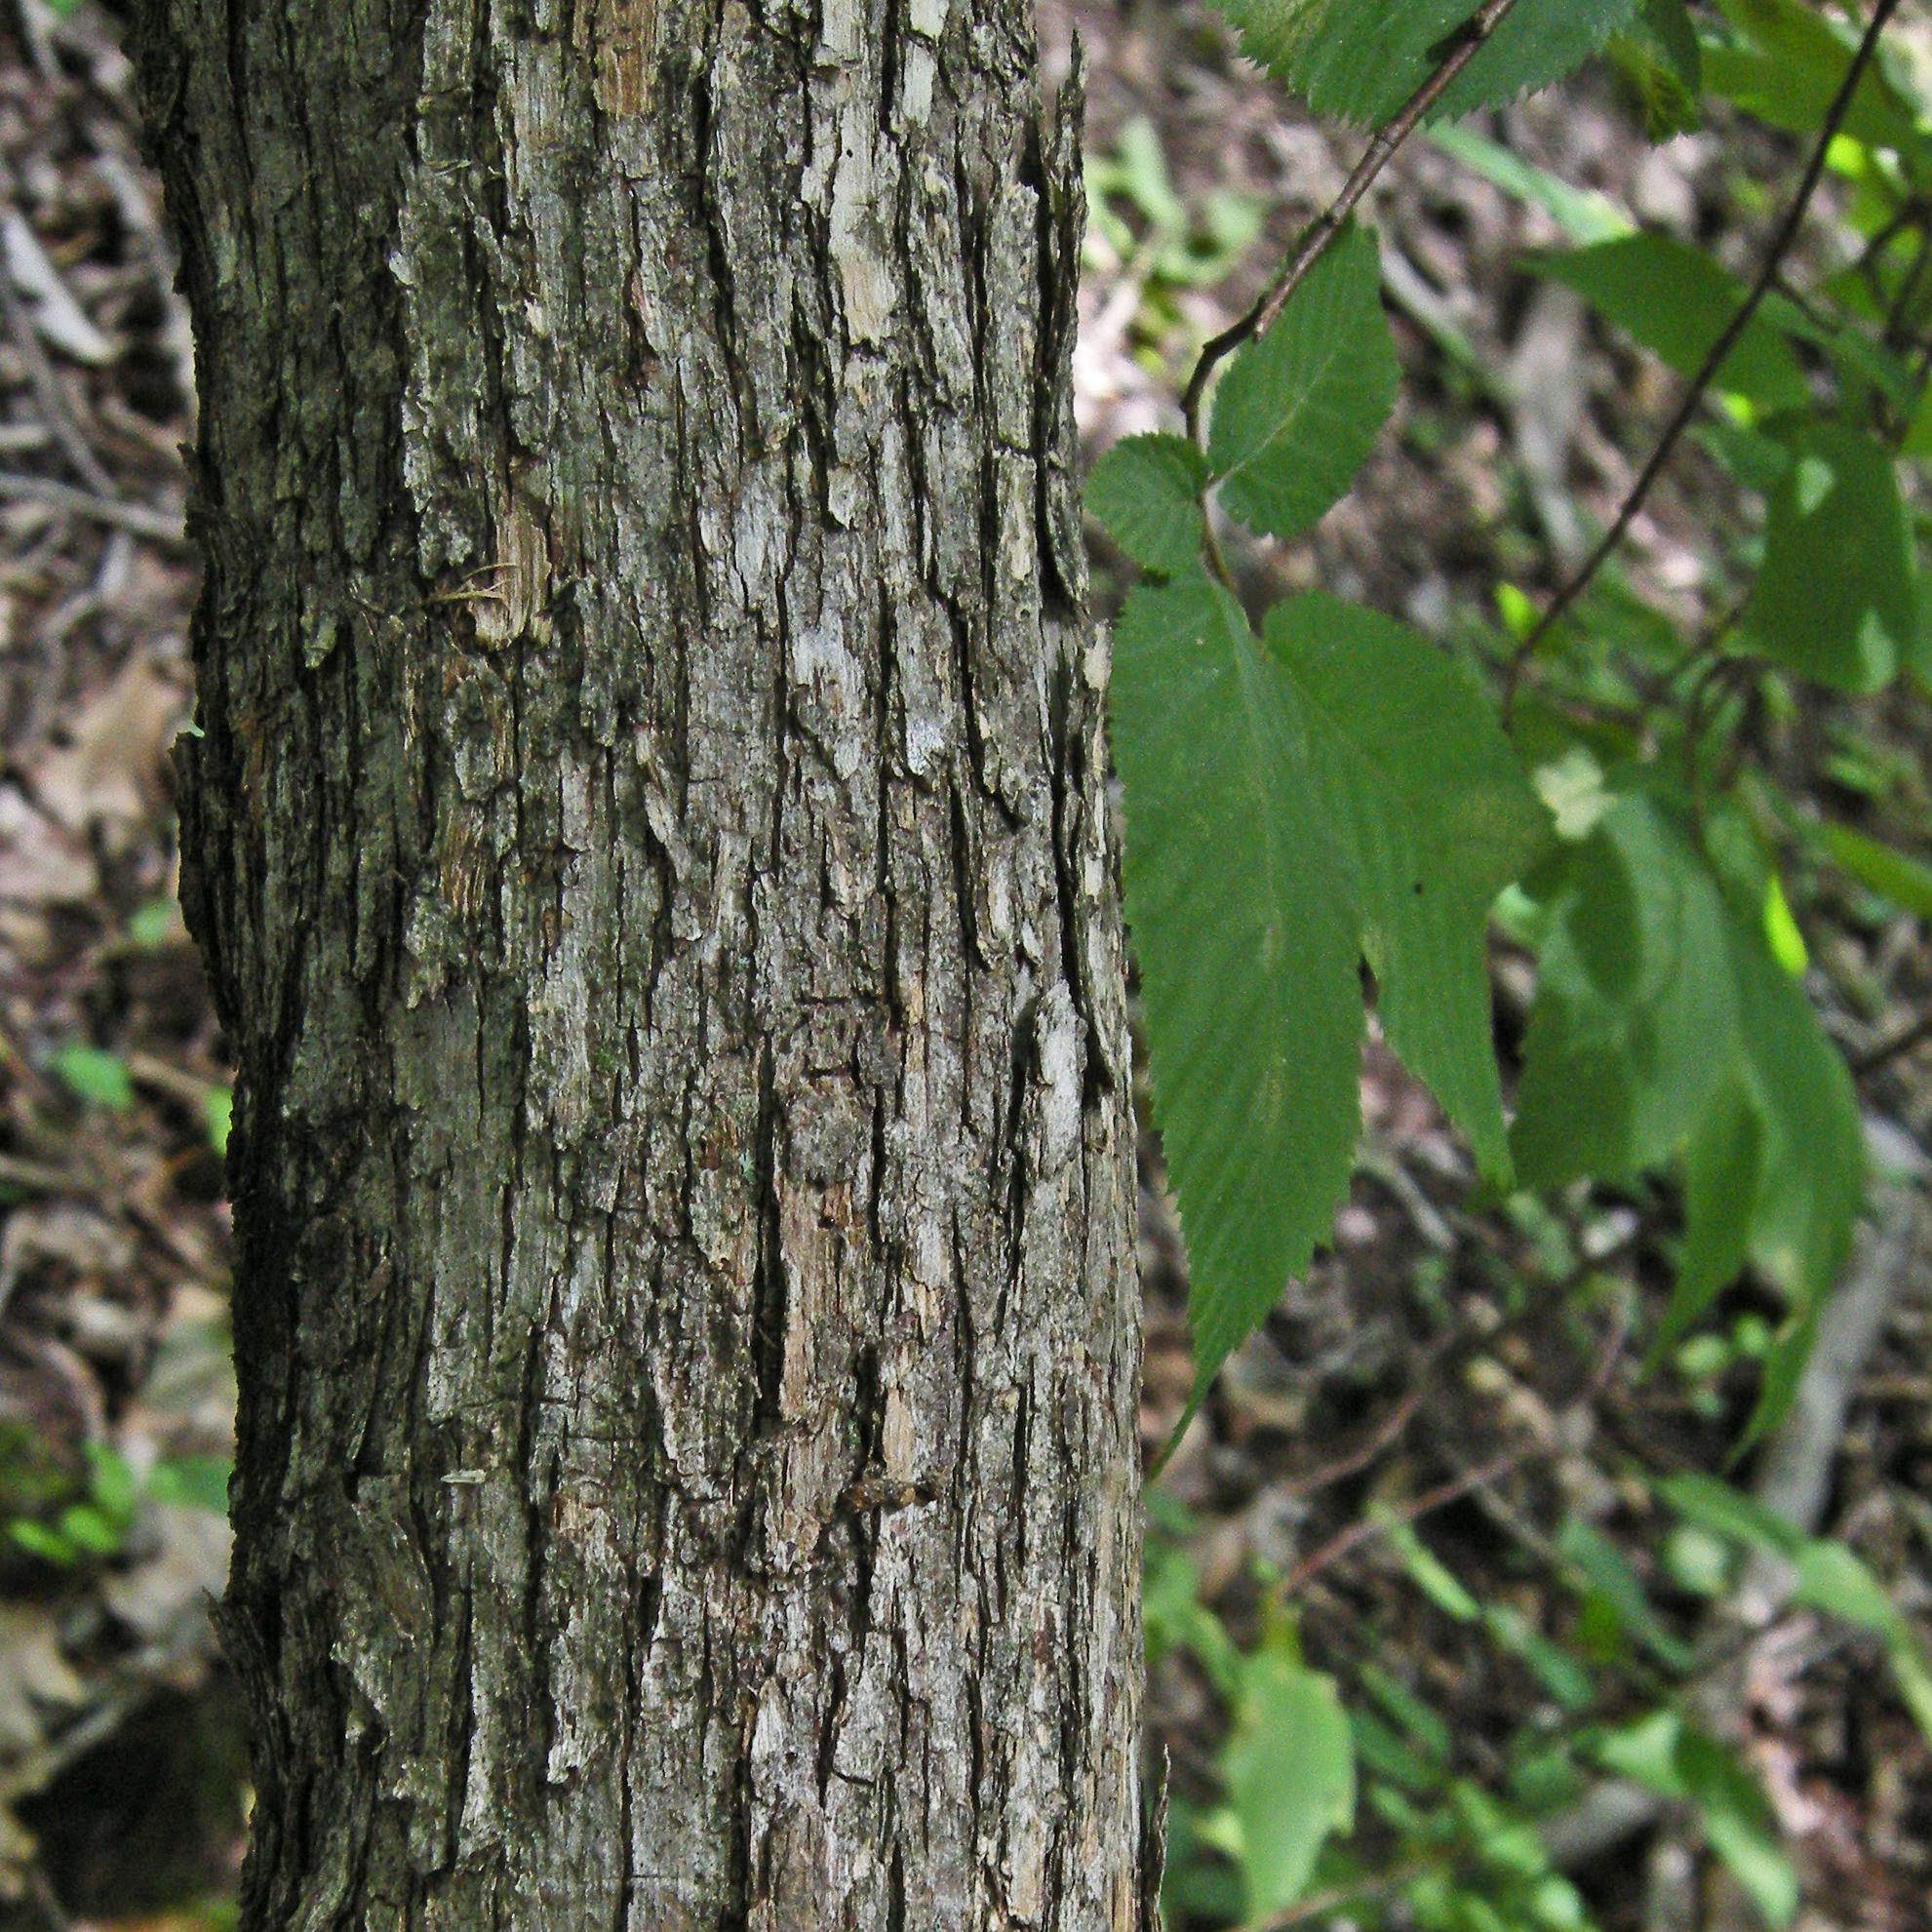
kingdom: Plantae
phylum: Tracheophyta
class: Magnoliopsida
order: Fagales
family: Betulaceae
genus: Ostrya
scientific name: Ostrya virginiana
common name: Ironwood
